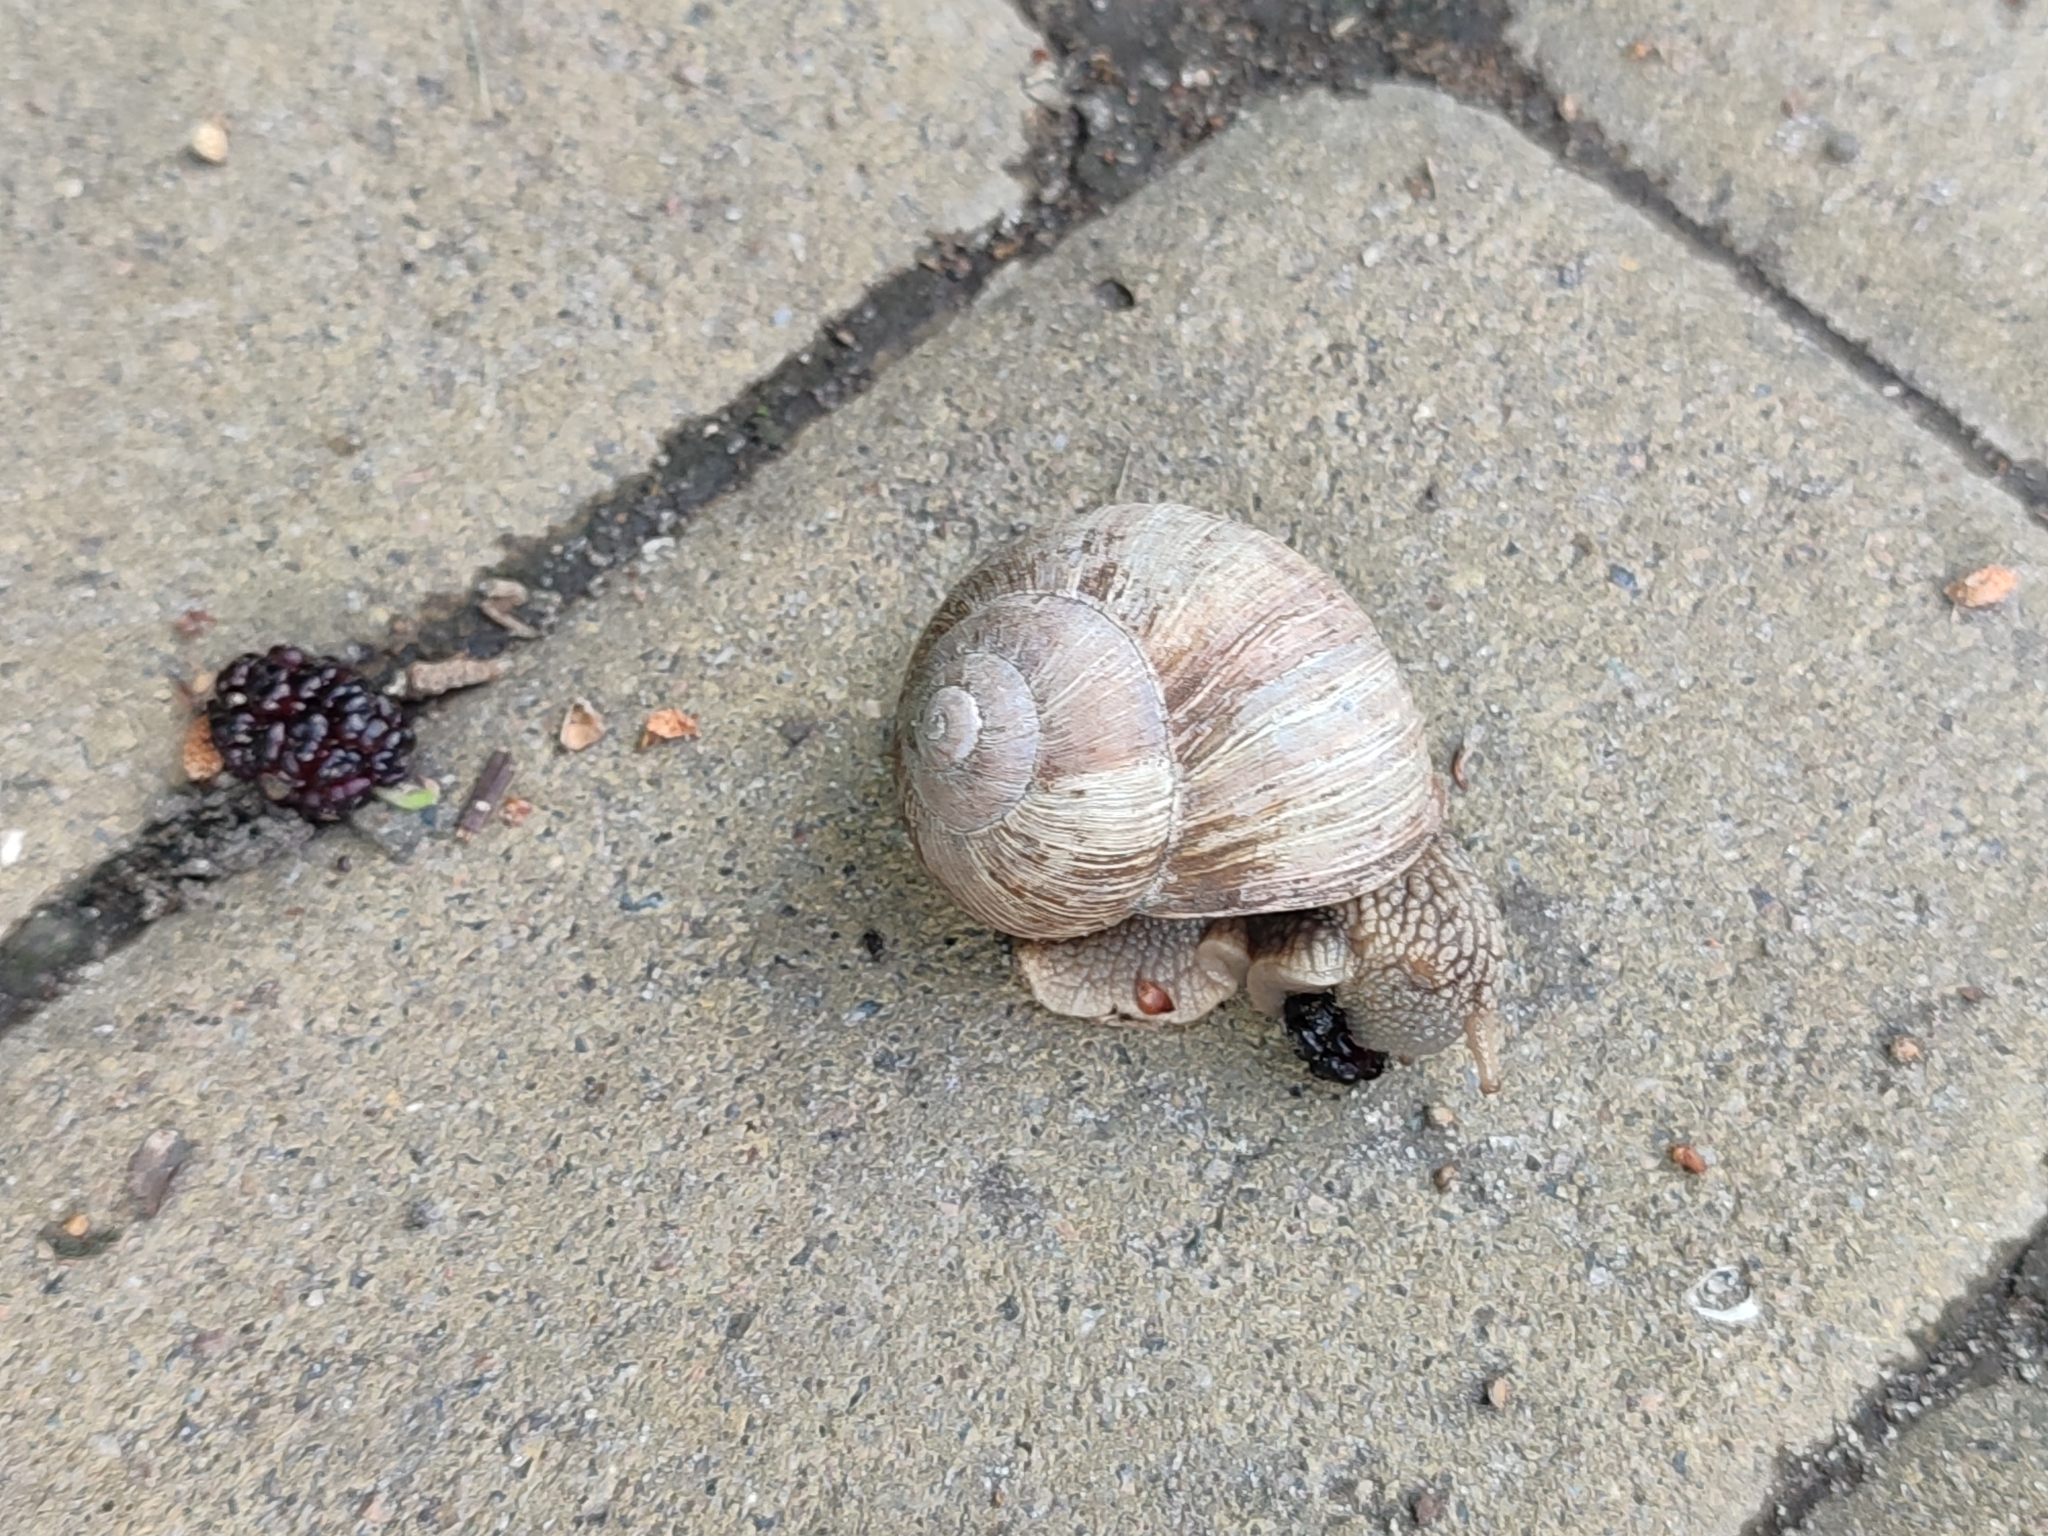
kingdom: Animalia
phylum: Mollusca
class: Gastropoda
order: Stylommatophora
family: Helicidae
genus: Helix
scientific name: Helix pomatia
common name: Roman snail
